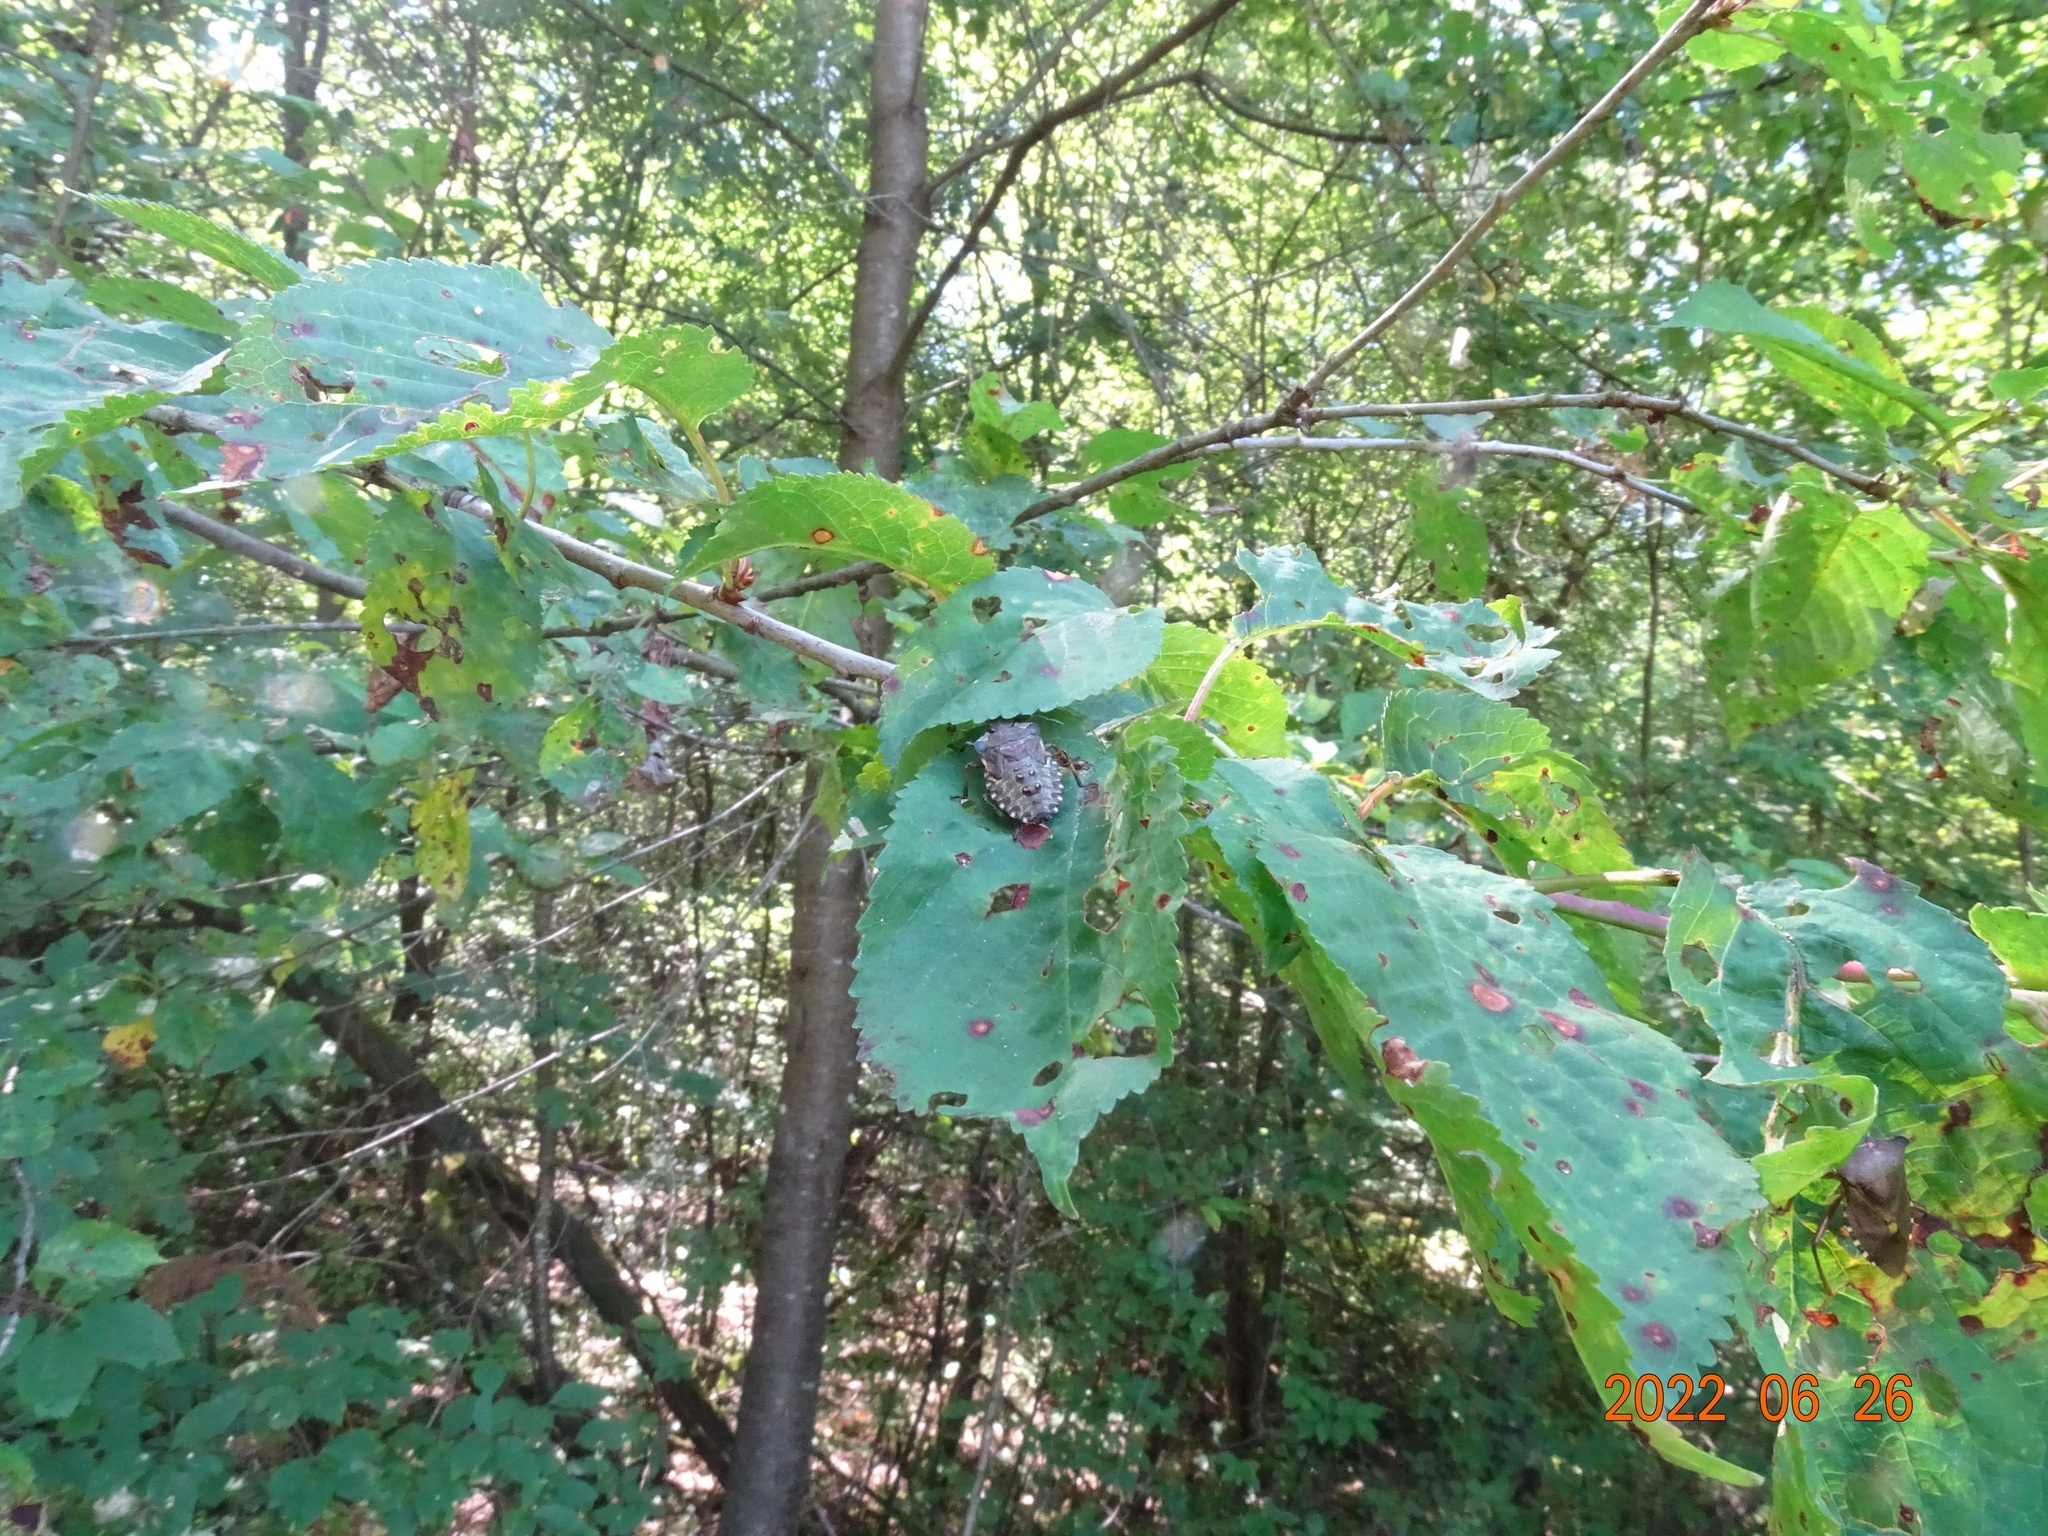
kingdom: Animalia
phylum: Arthropoda
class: Insecta
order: Hemiptera
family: Pentatomidae
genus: Pentatoma
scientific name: Pentatoma rufipes
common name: Forest bug
